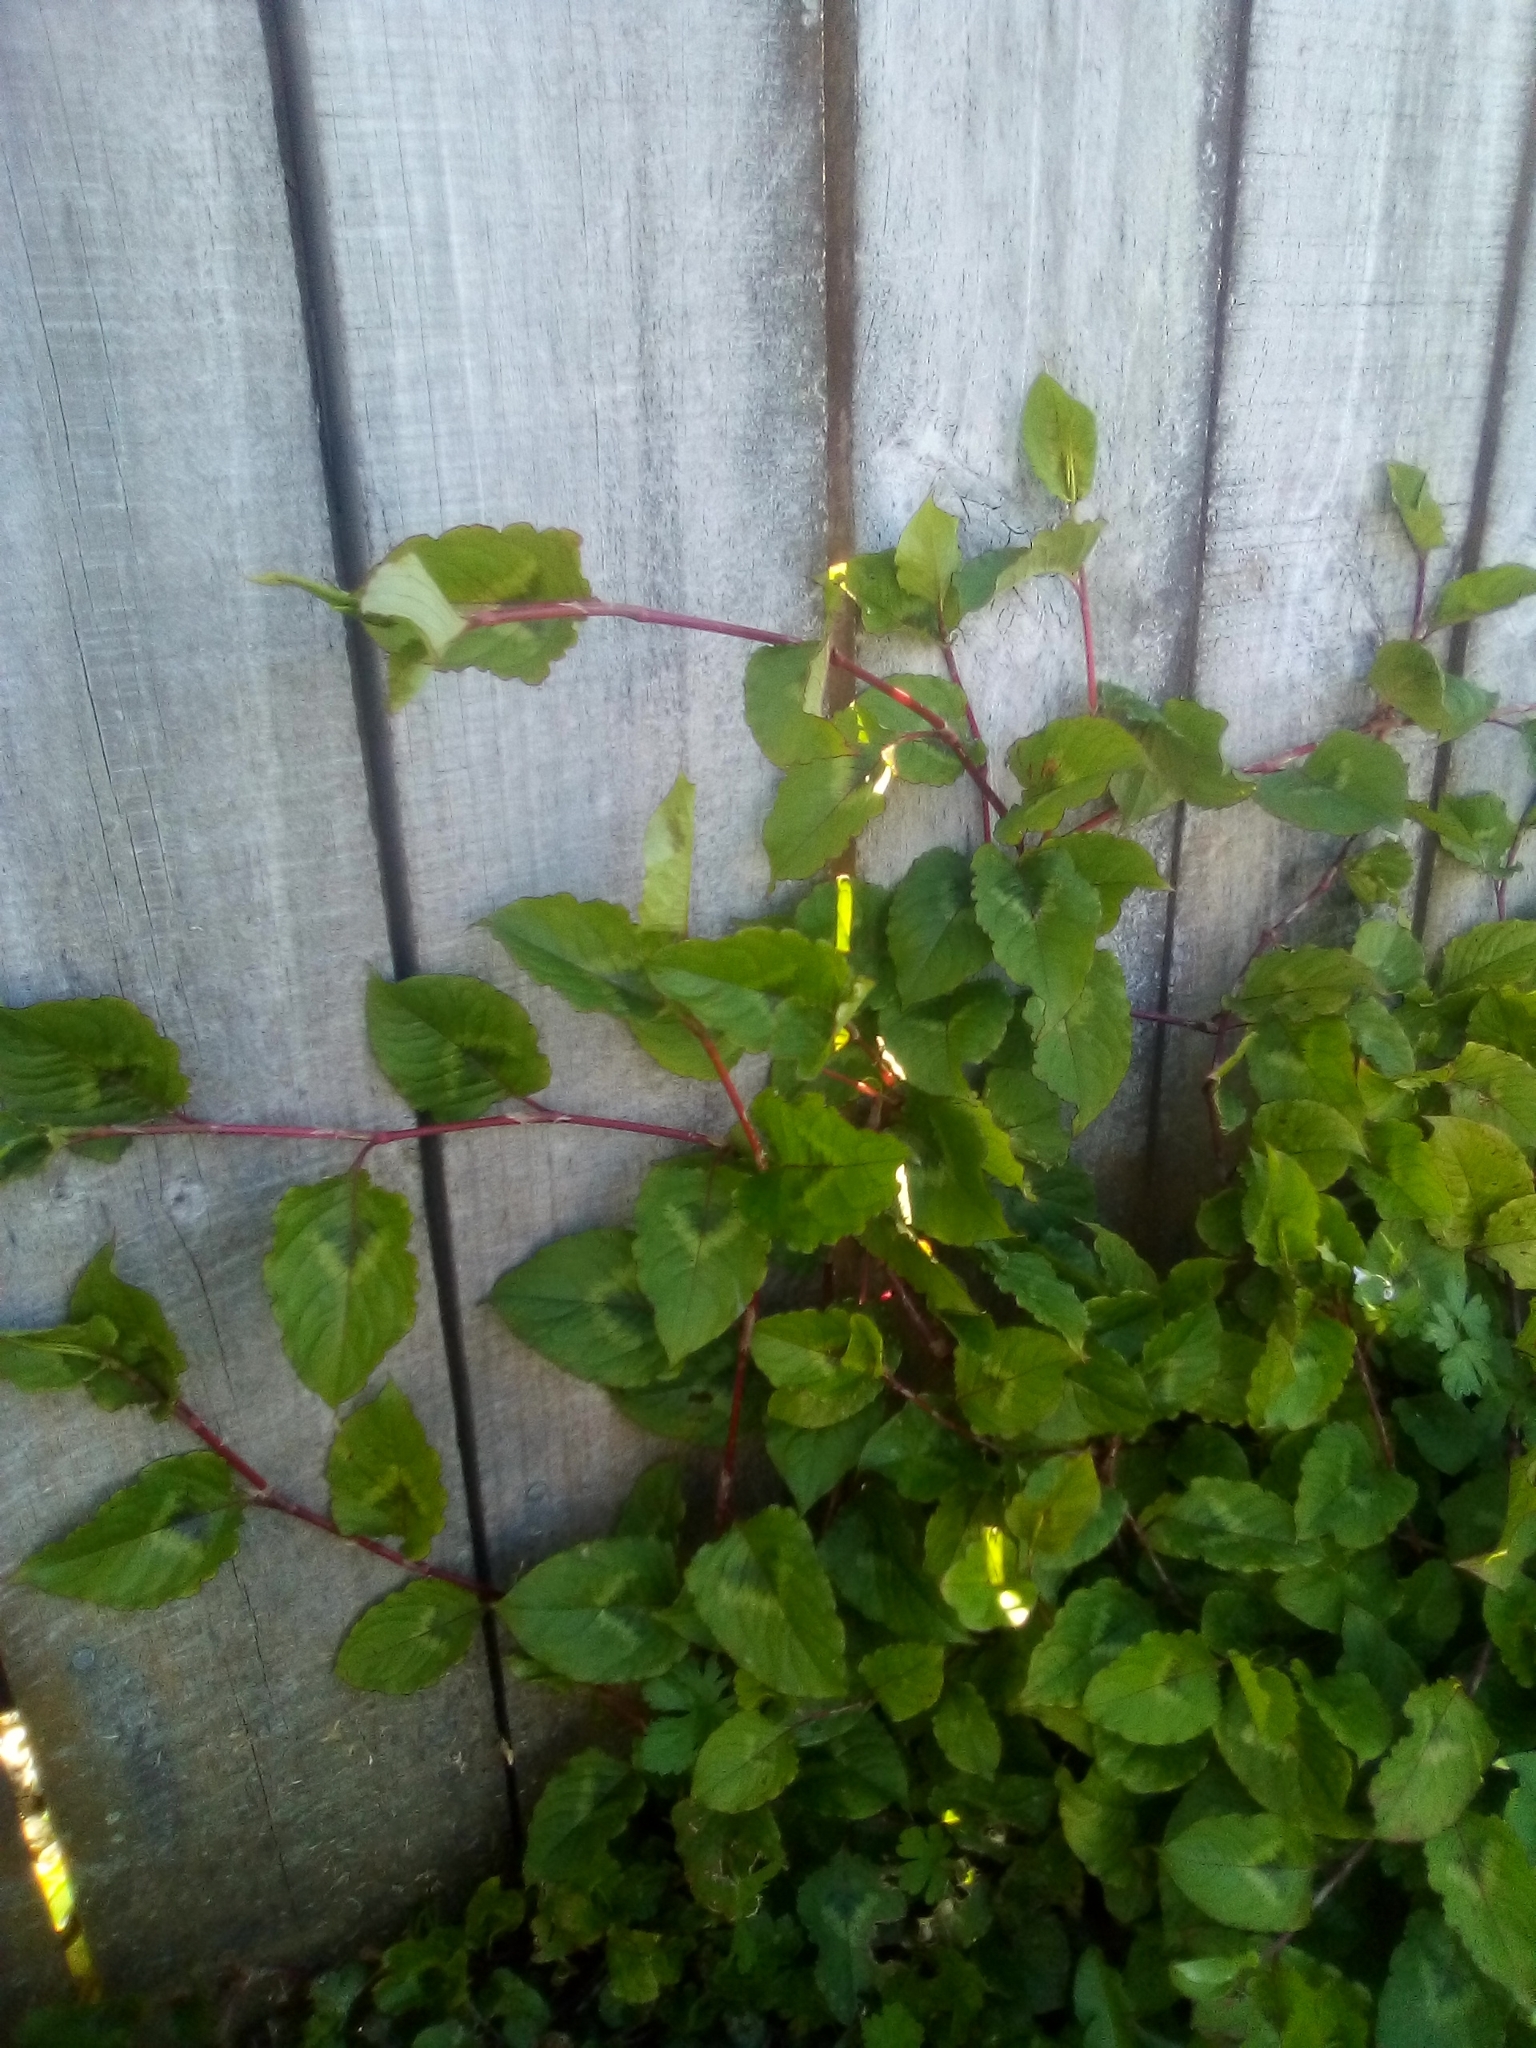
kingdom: Plantae
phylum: Tracheophyta
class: Magnoliopsida
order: Caryophyllales
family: Polygonaceae
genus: Persicaria
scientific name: Persicaria chinensis
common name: Chinese knotweed
